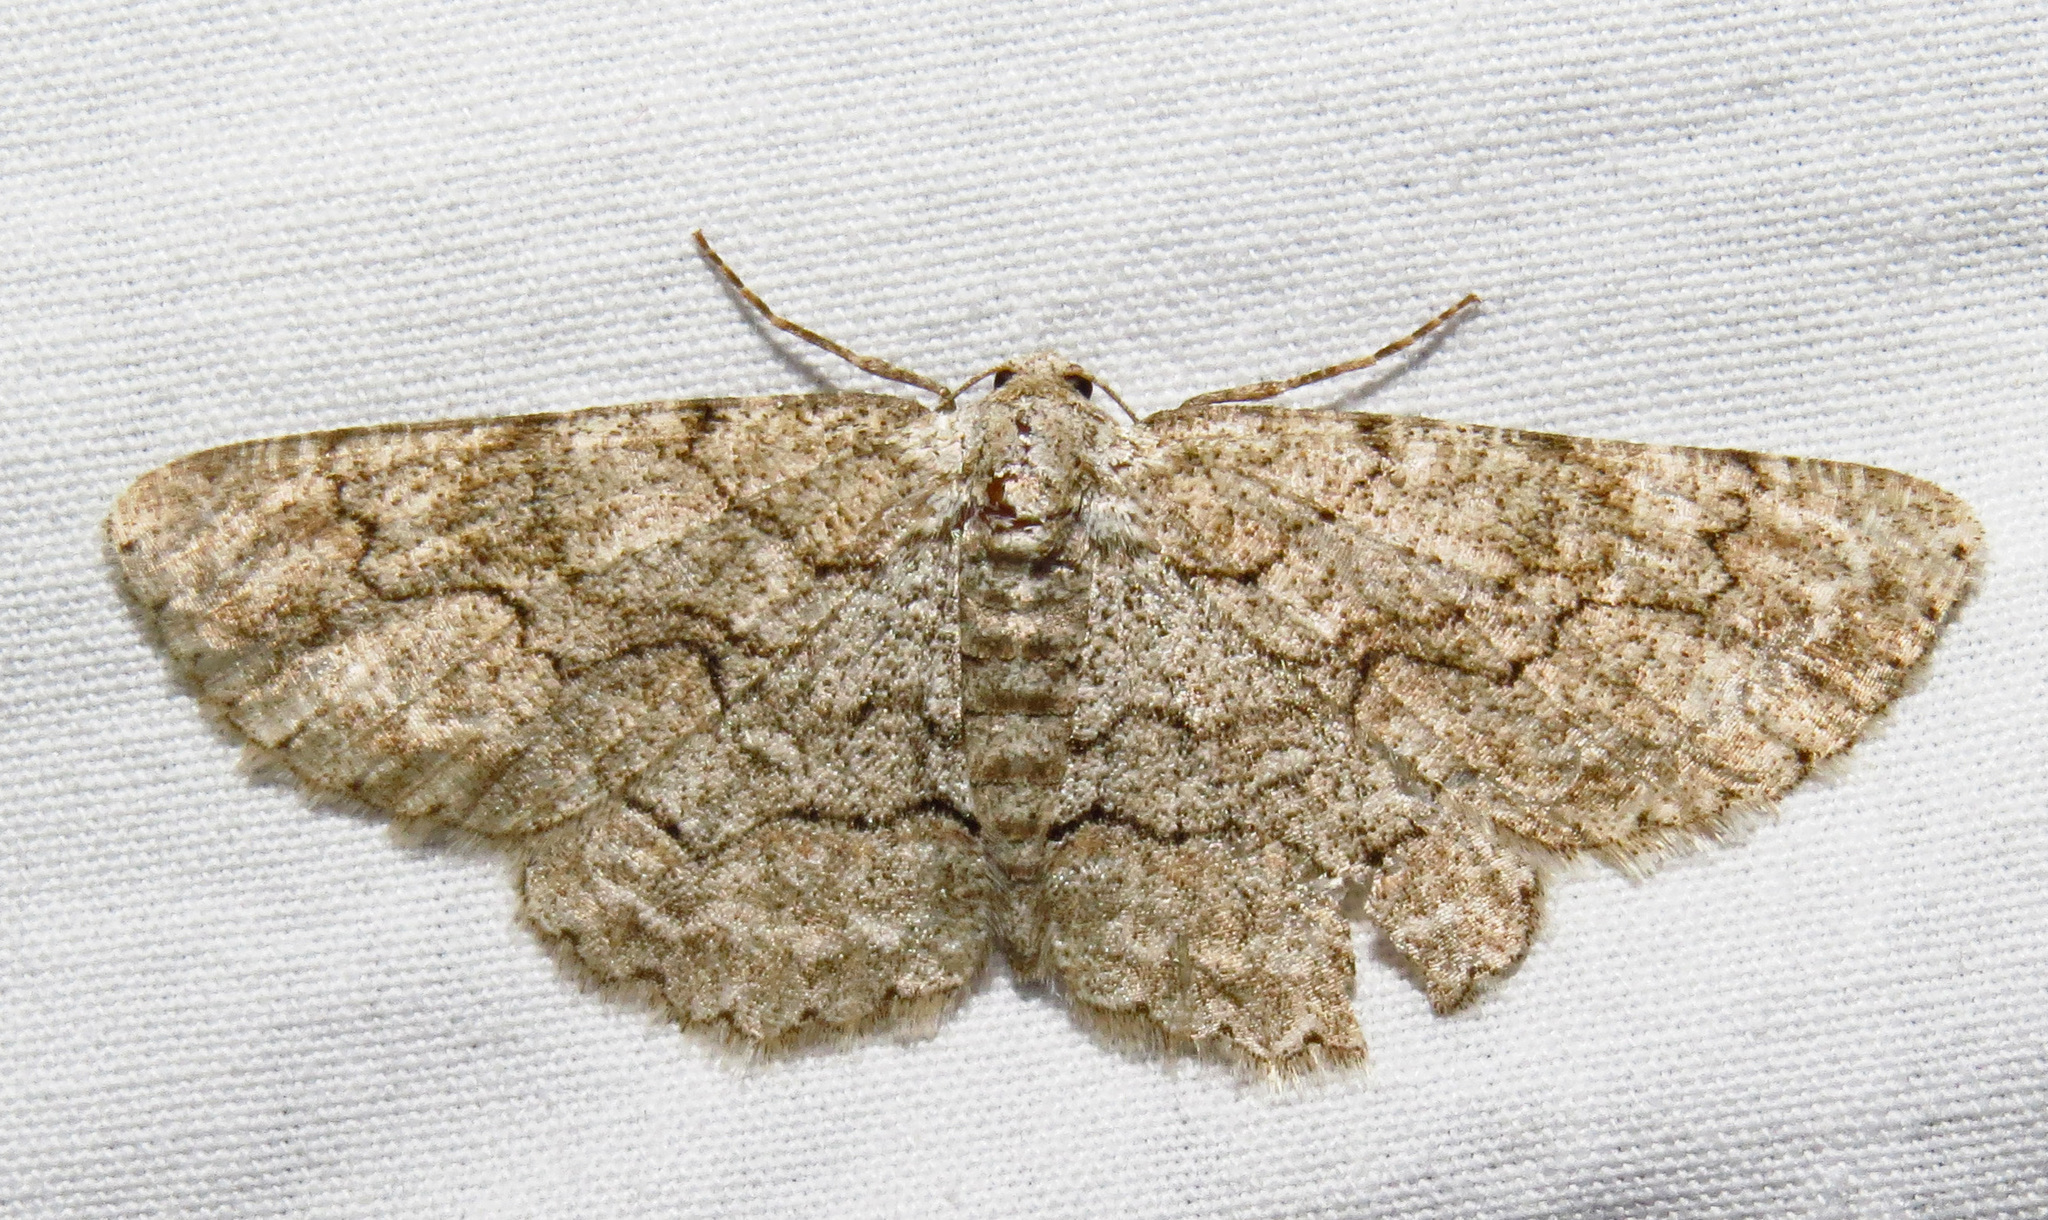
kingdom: Animalia
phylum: Arthropoda
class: Insecta
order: Lepidoptera
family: Geometridae
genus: Iridopsis
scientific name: Iridopsis defectaria
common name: Brown-shaded gray
